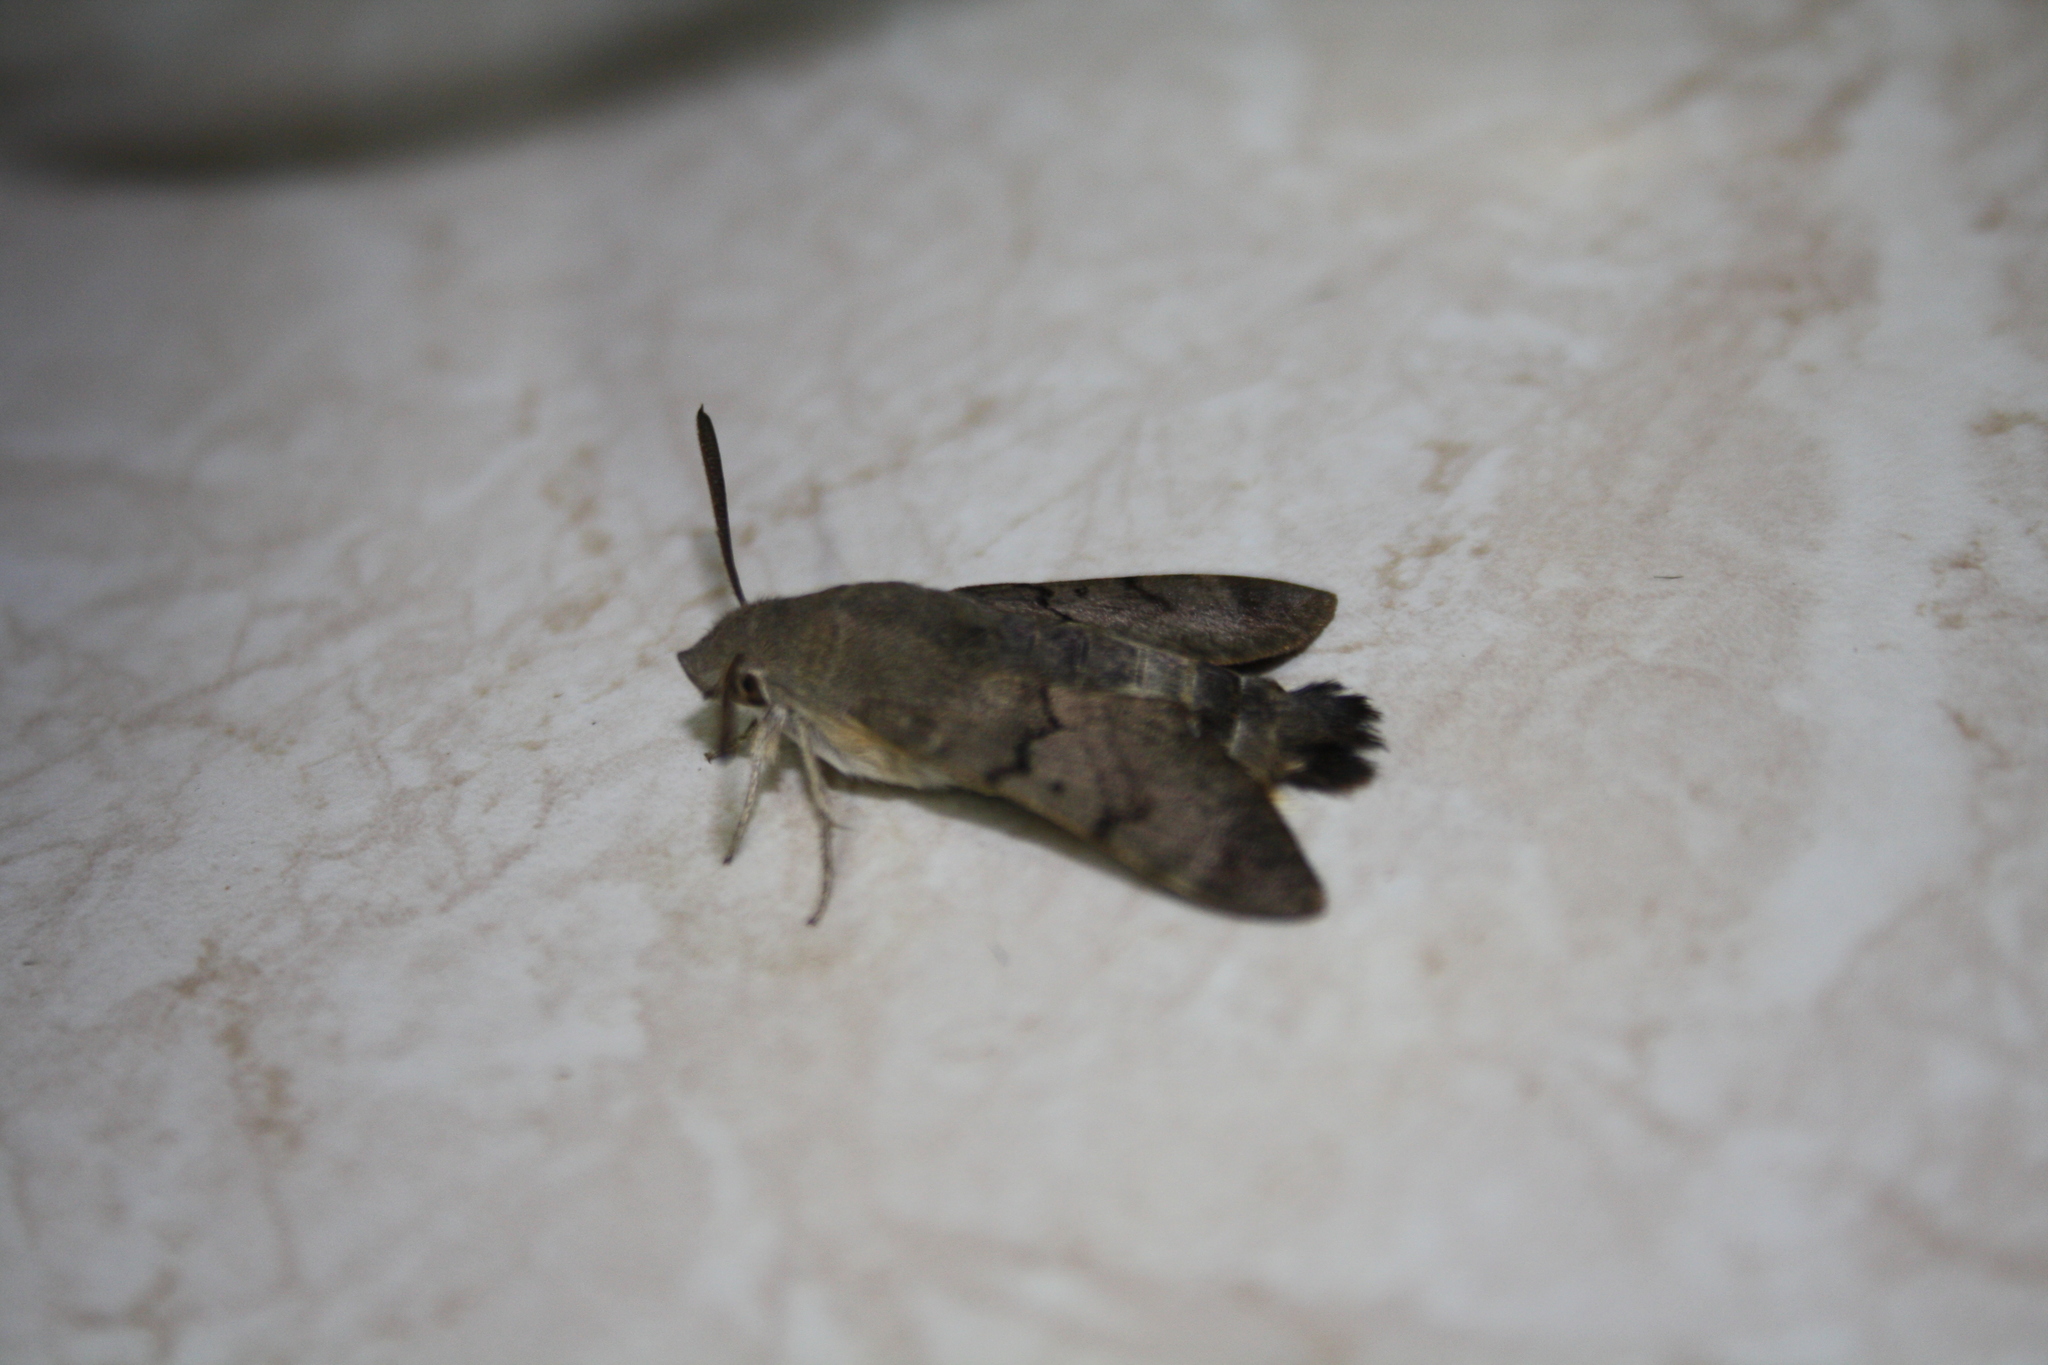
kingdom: Animalia
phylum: Arthropoda
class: Insecta
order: Lepidoptera
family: Sphingidae
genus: Macroglossum
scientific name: Macroglossum stellatarum
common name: Humming-bird hawk-moth
